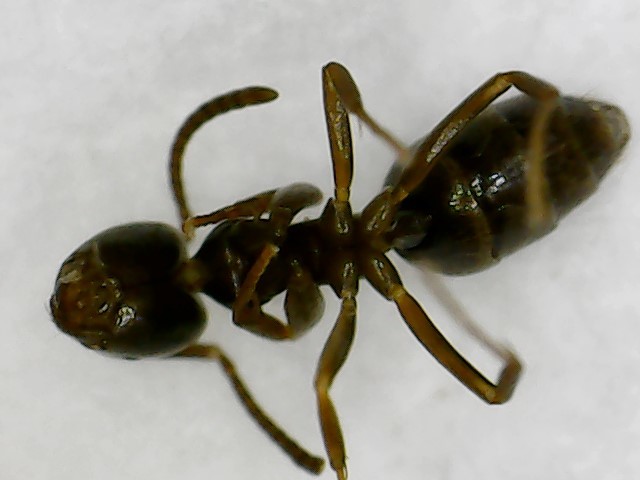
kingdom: Animalia
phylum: Arthropoda
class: Insecta
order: Hymenoptera
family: Formicidae
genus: Tapinoma
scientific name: Tapinoma sessile
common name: Odorous house ant
